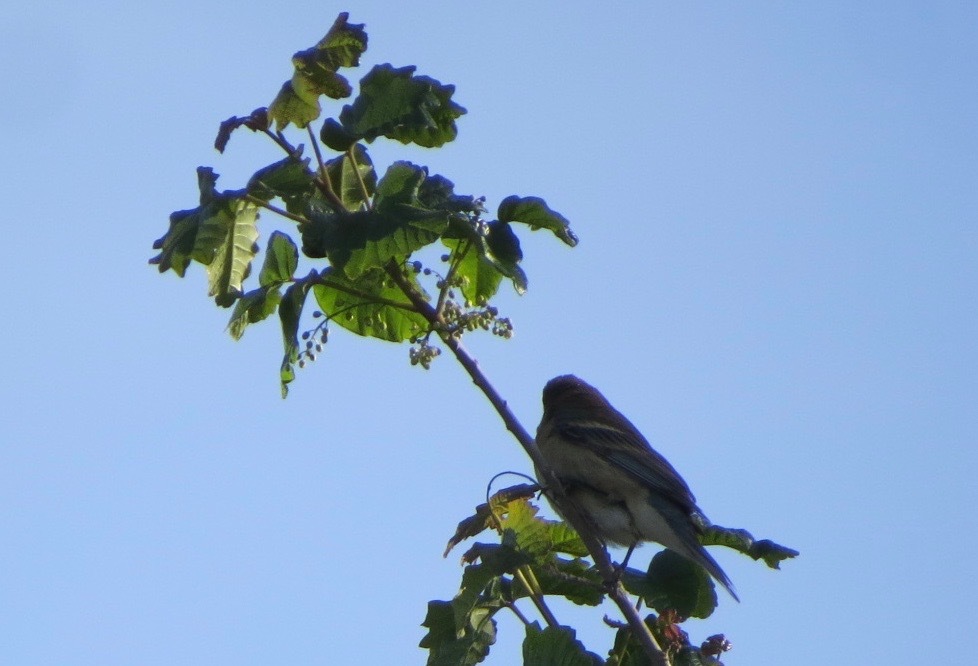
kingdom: Animalia
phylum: Chordata
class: Aves
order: Passeriformes
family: Cardinalidae
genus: Passerina
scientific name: Passerina amoena
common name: Lazuli bunting
